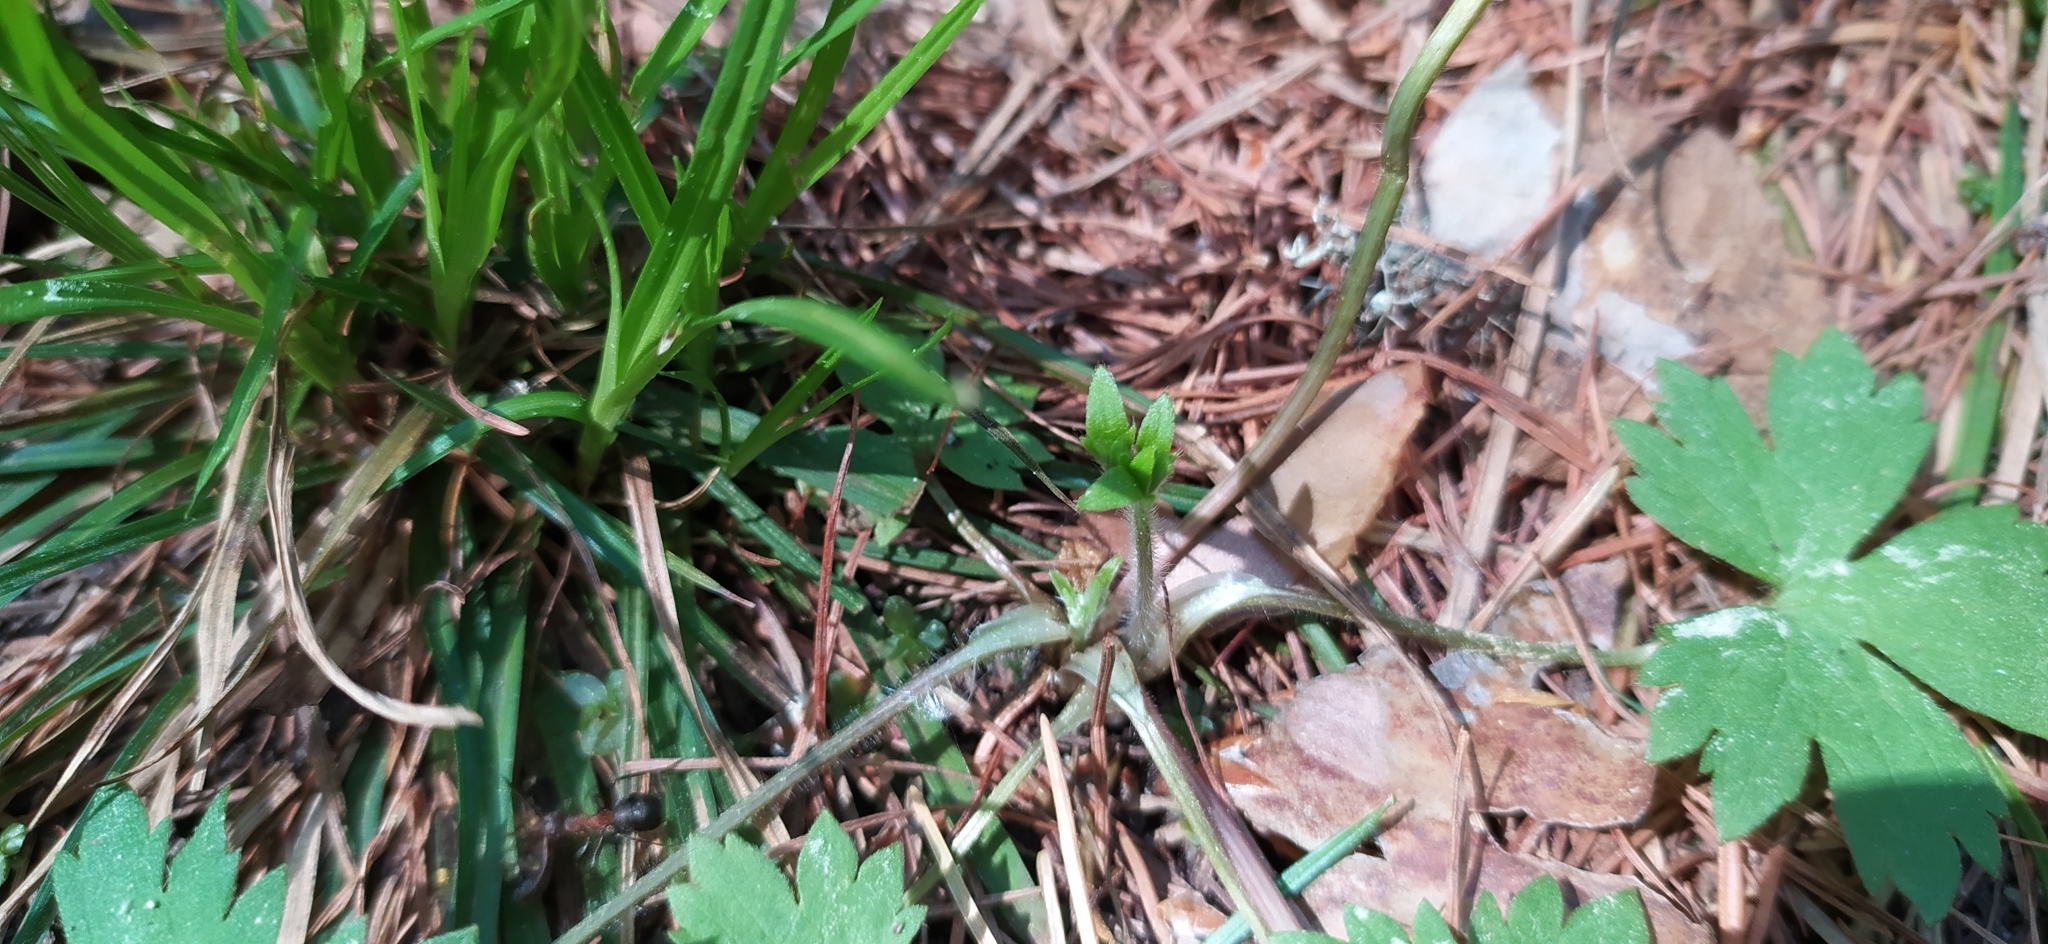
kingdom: Plantae
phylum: Tracheophyta
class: Magnoliopsida
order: Ranunculales
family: Ranunculaceae
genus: Ranunculus
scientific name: Ranunculus propinquus
